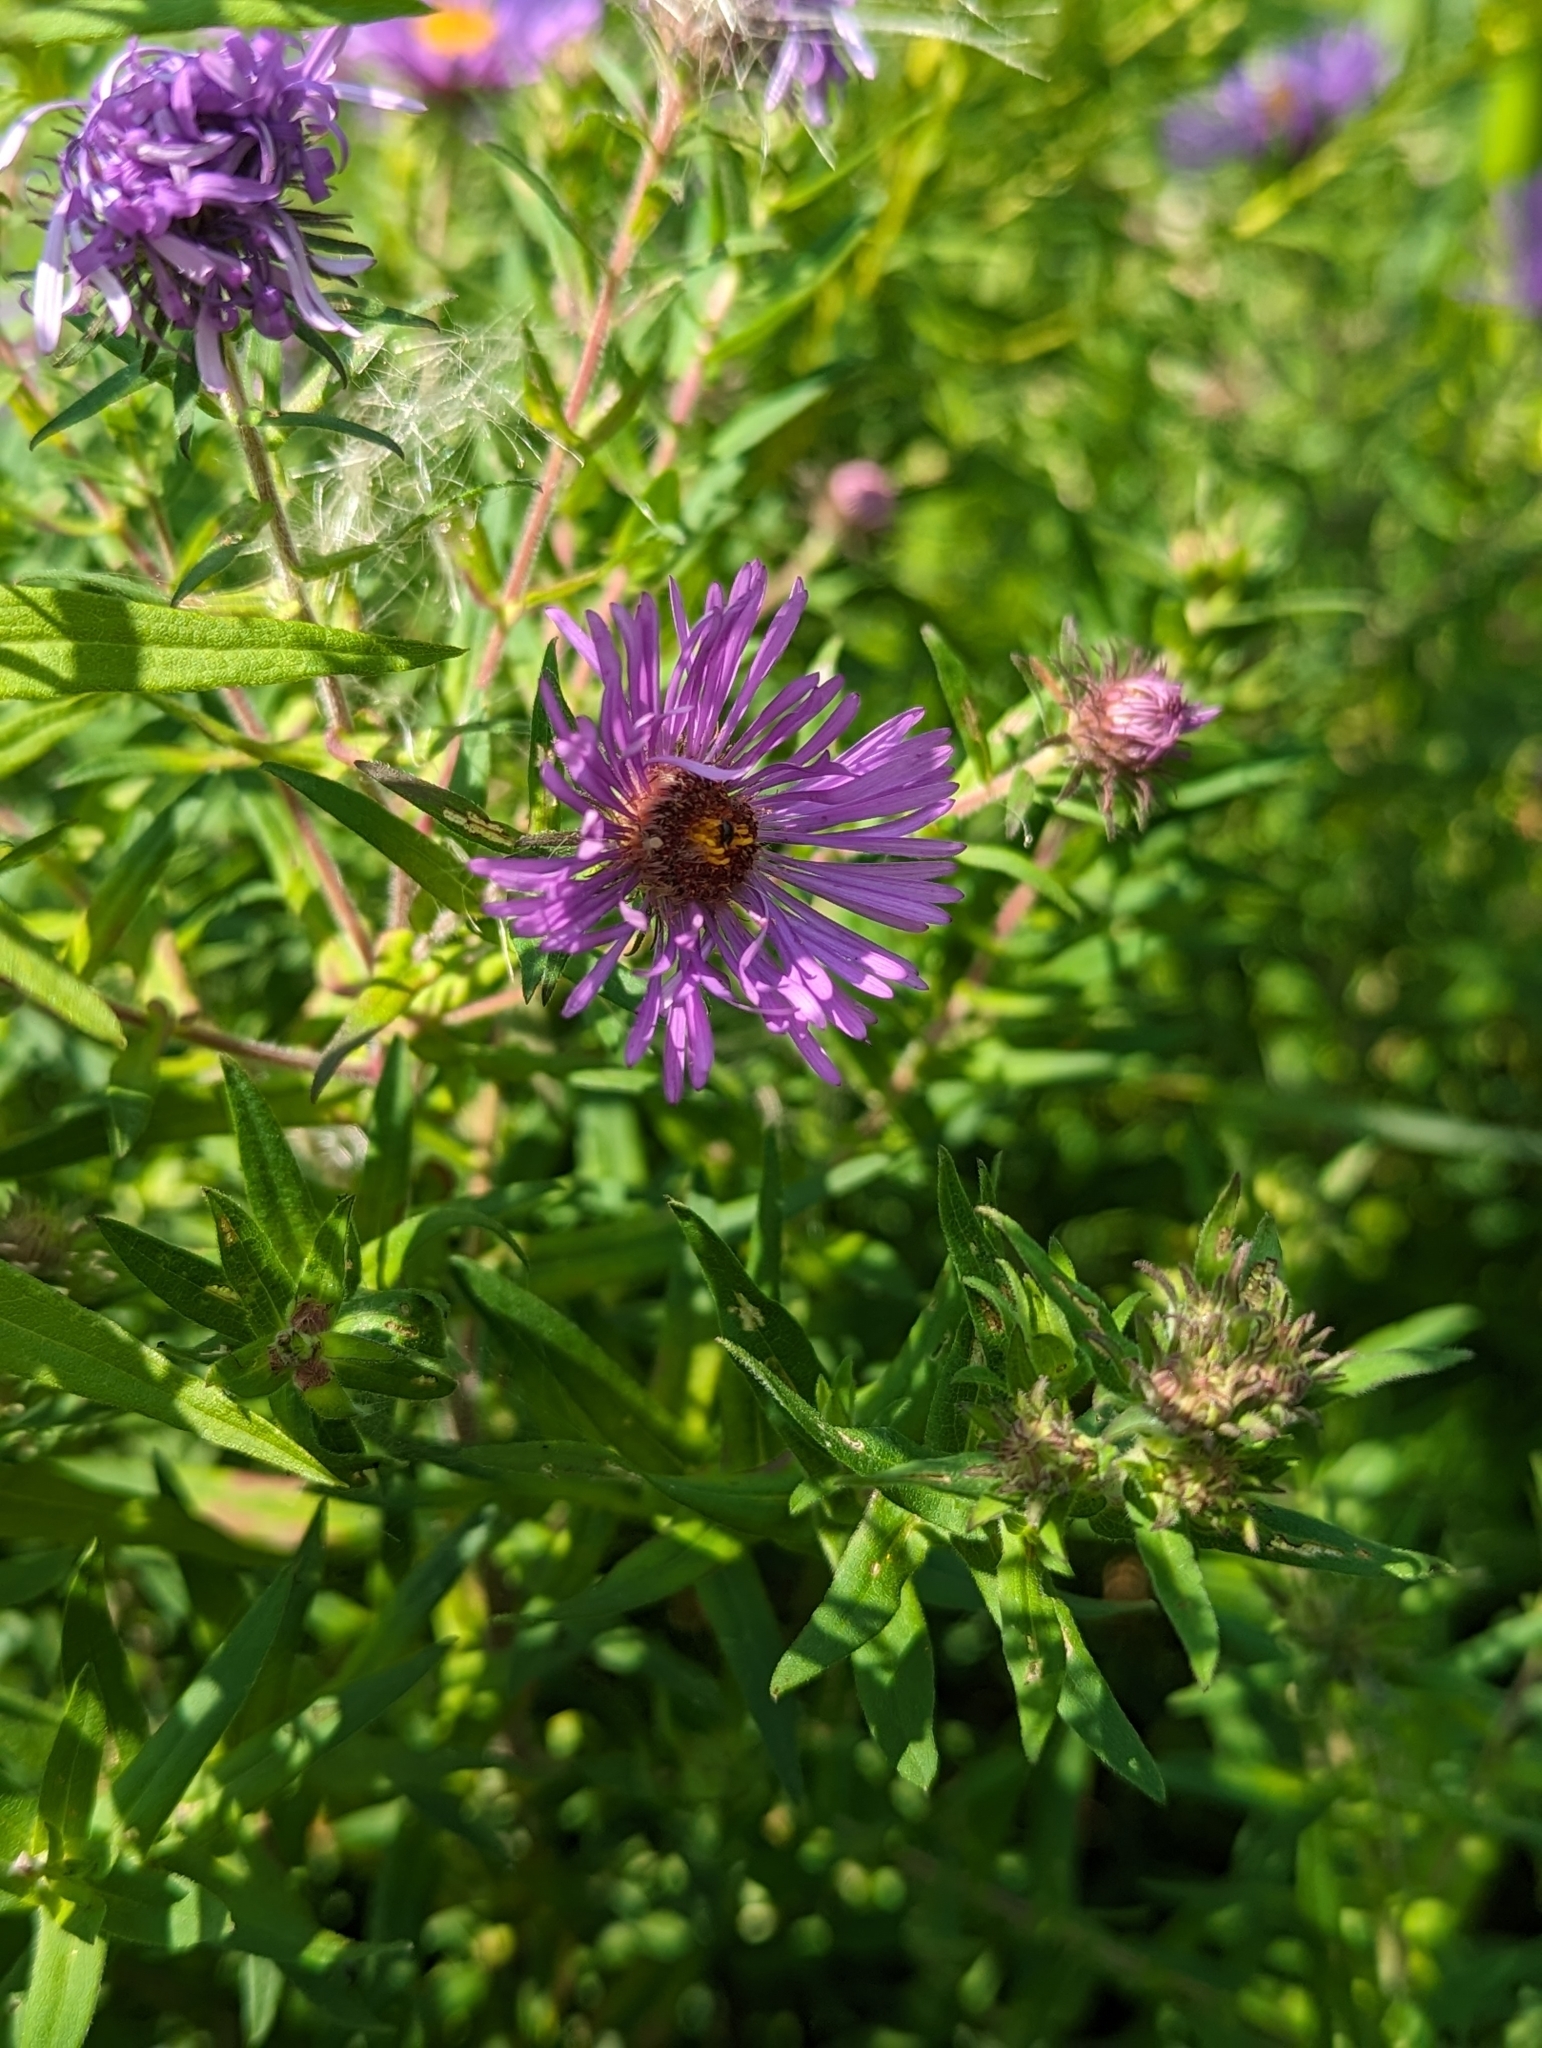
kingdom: Plantae
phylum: Tracheophyta
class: Magnoliopsida
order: Asterales
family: Asteraceae
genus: Symphyotrichum
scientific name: Symphyotrichum novae-angliae
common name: Michaelmas daisy
